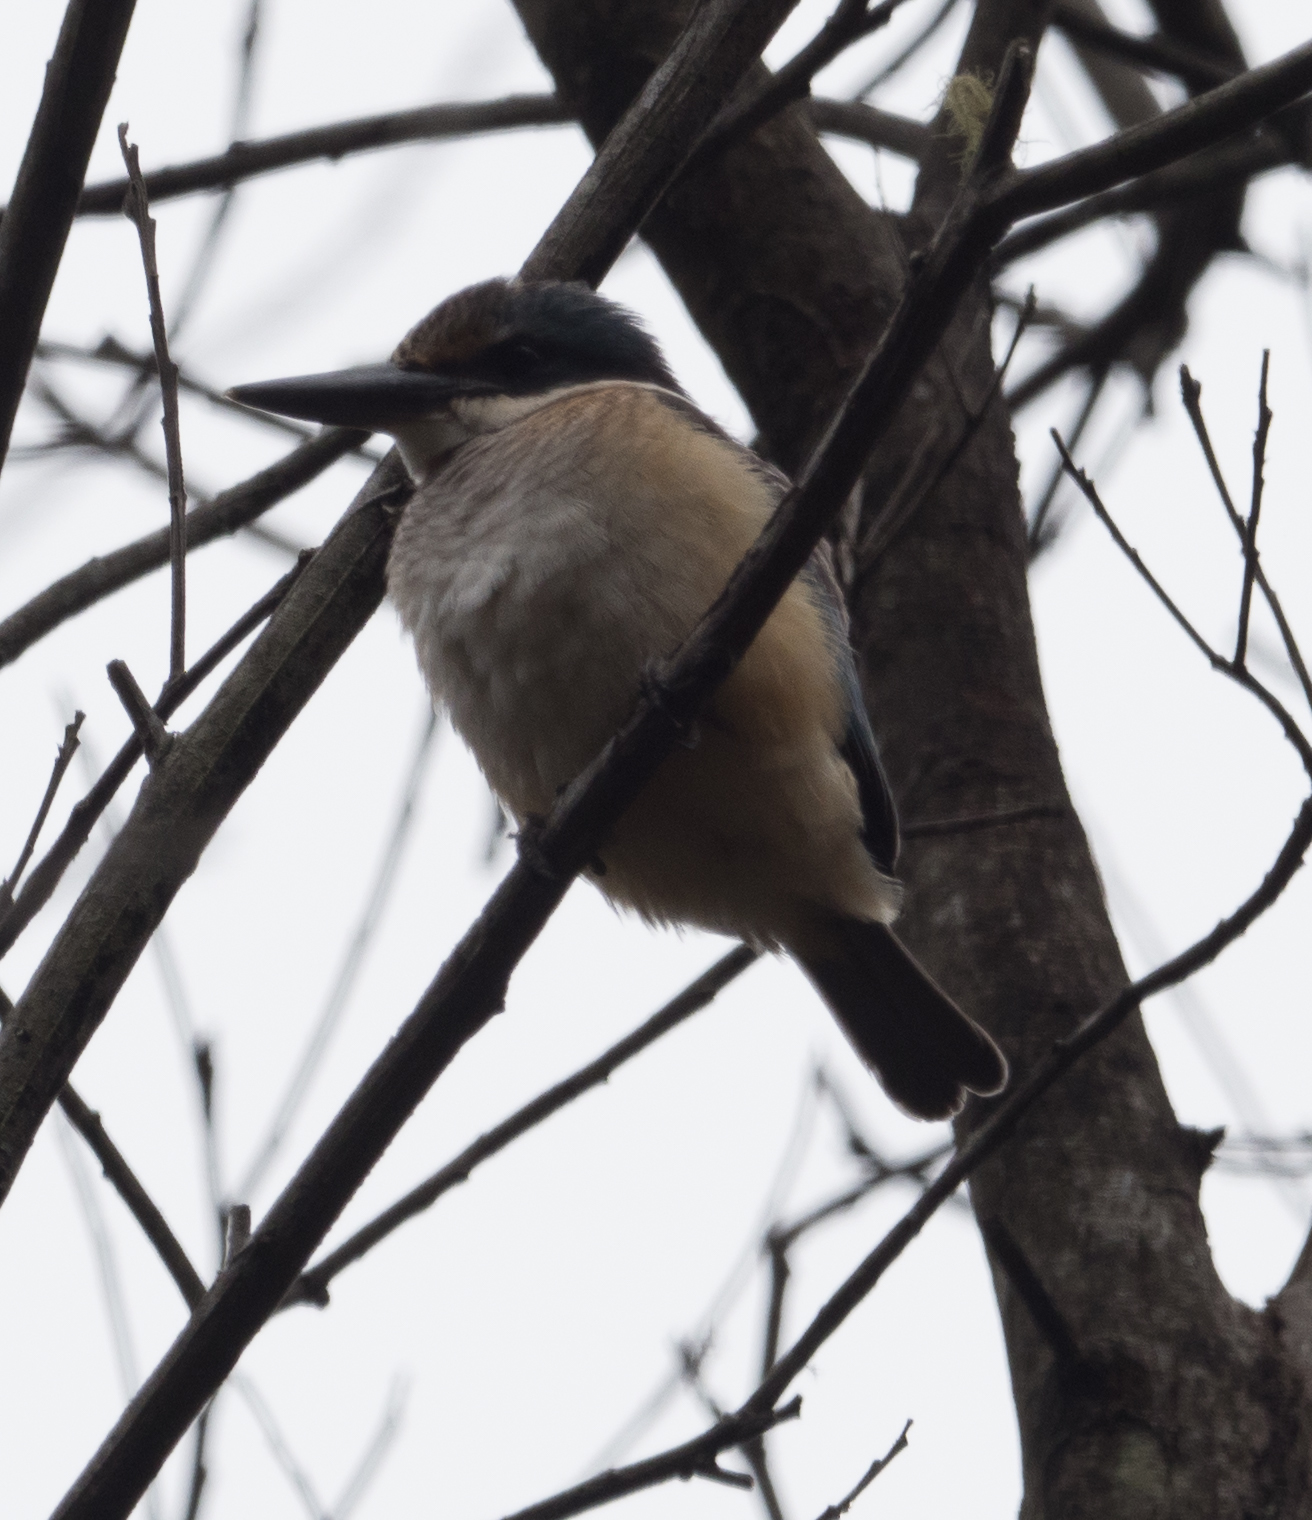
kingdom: Animalia
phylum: Chordata
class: Aves
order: Coraciiformes
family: Alcedinidae
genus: Todiramphus
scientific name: Todiramphus sanctus
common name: Sacred kingfisher
